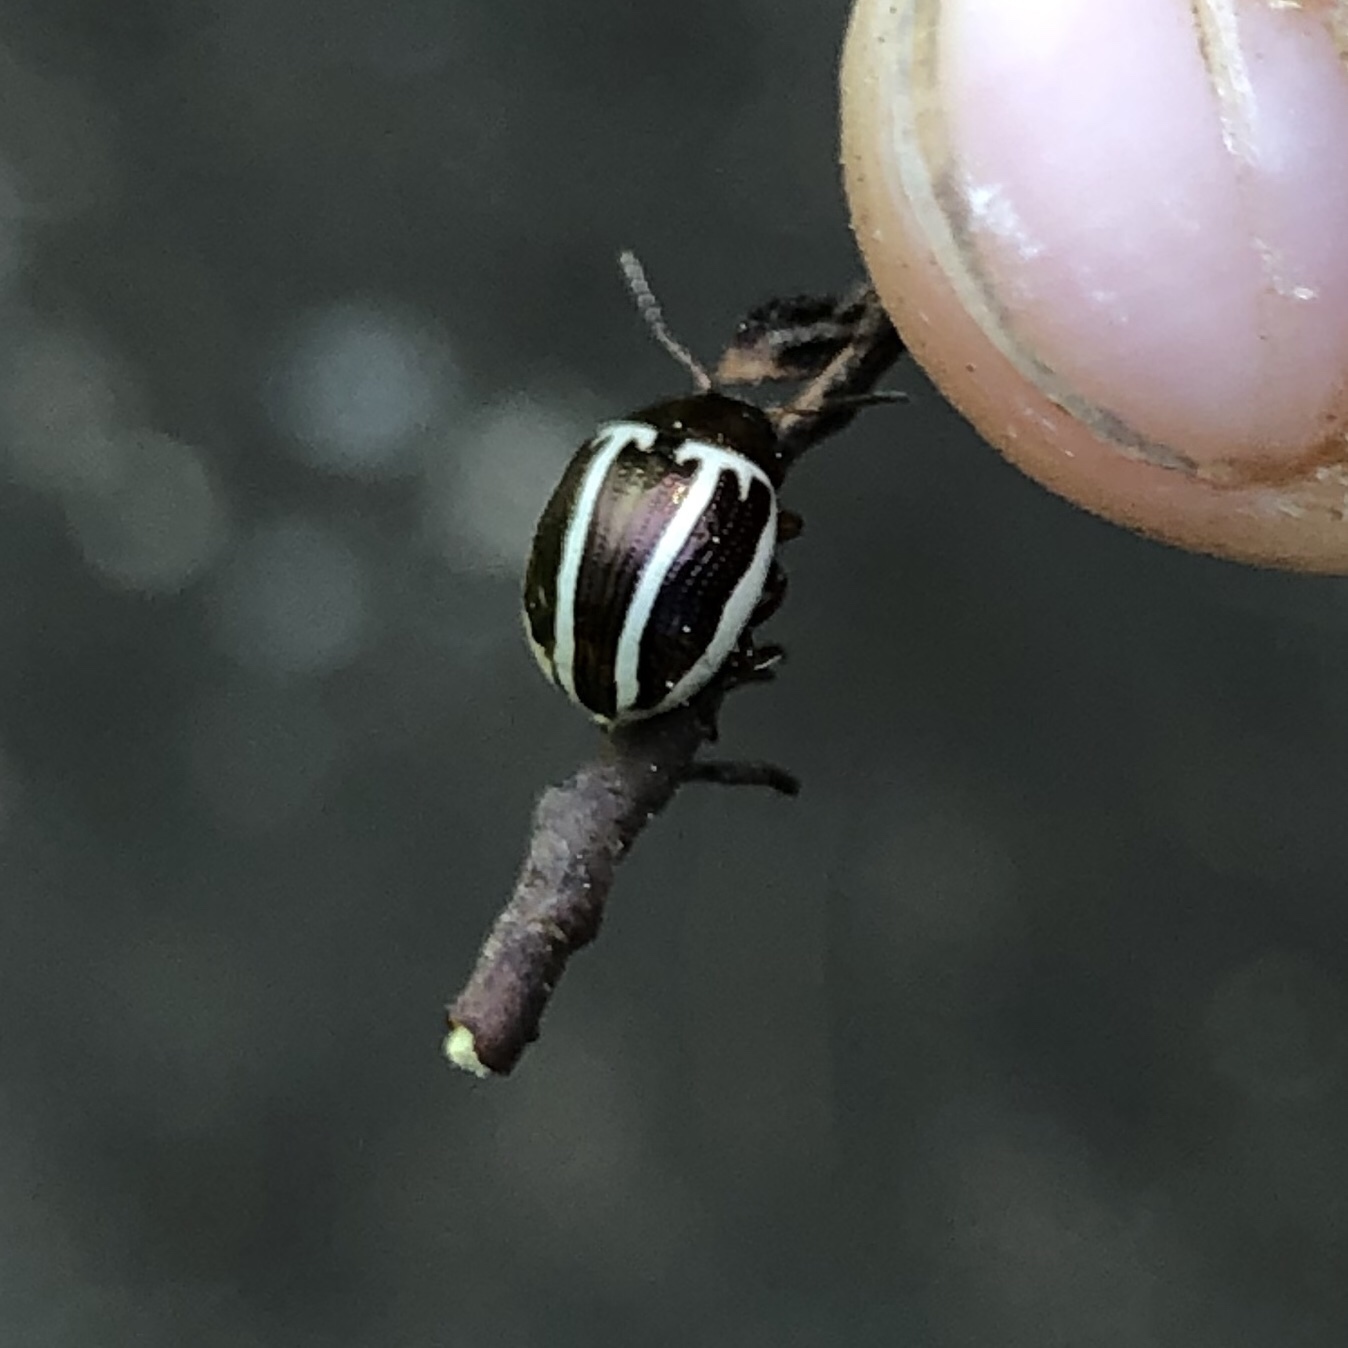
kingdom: Animalia
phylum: Arthropoda
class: Insecta
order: Coleoptera
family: Chrysomelidae
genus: Calligrapha
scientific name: Calligrapha
